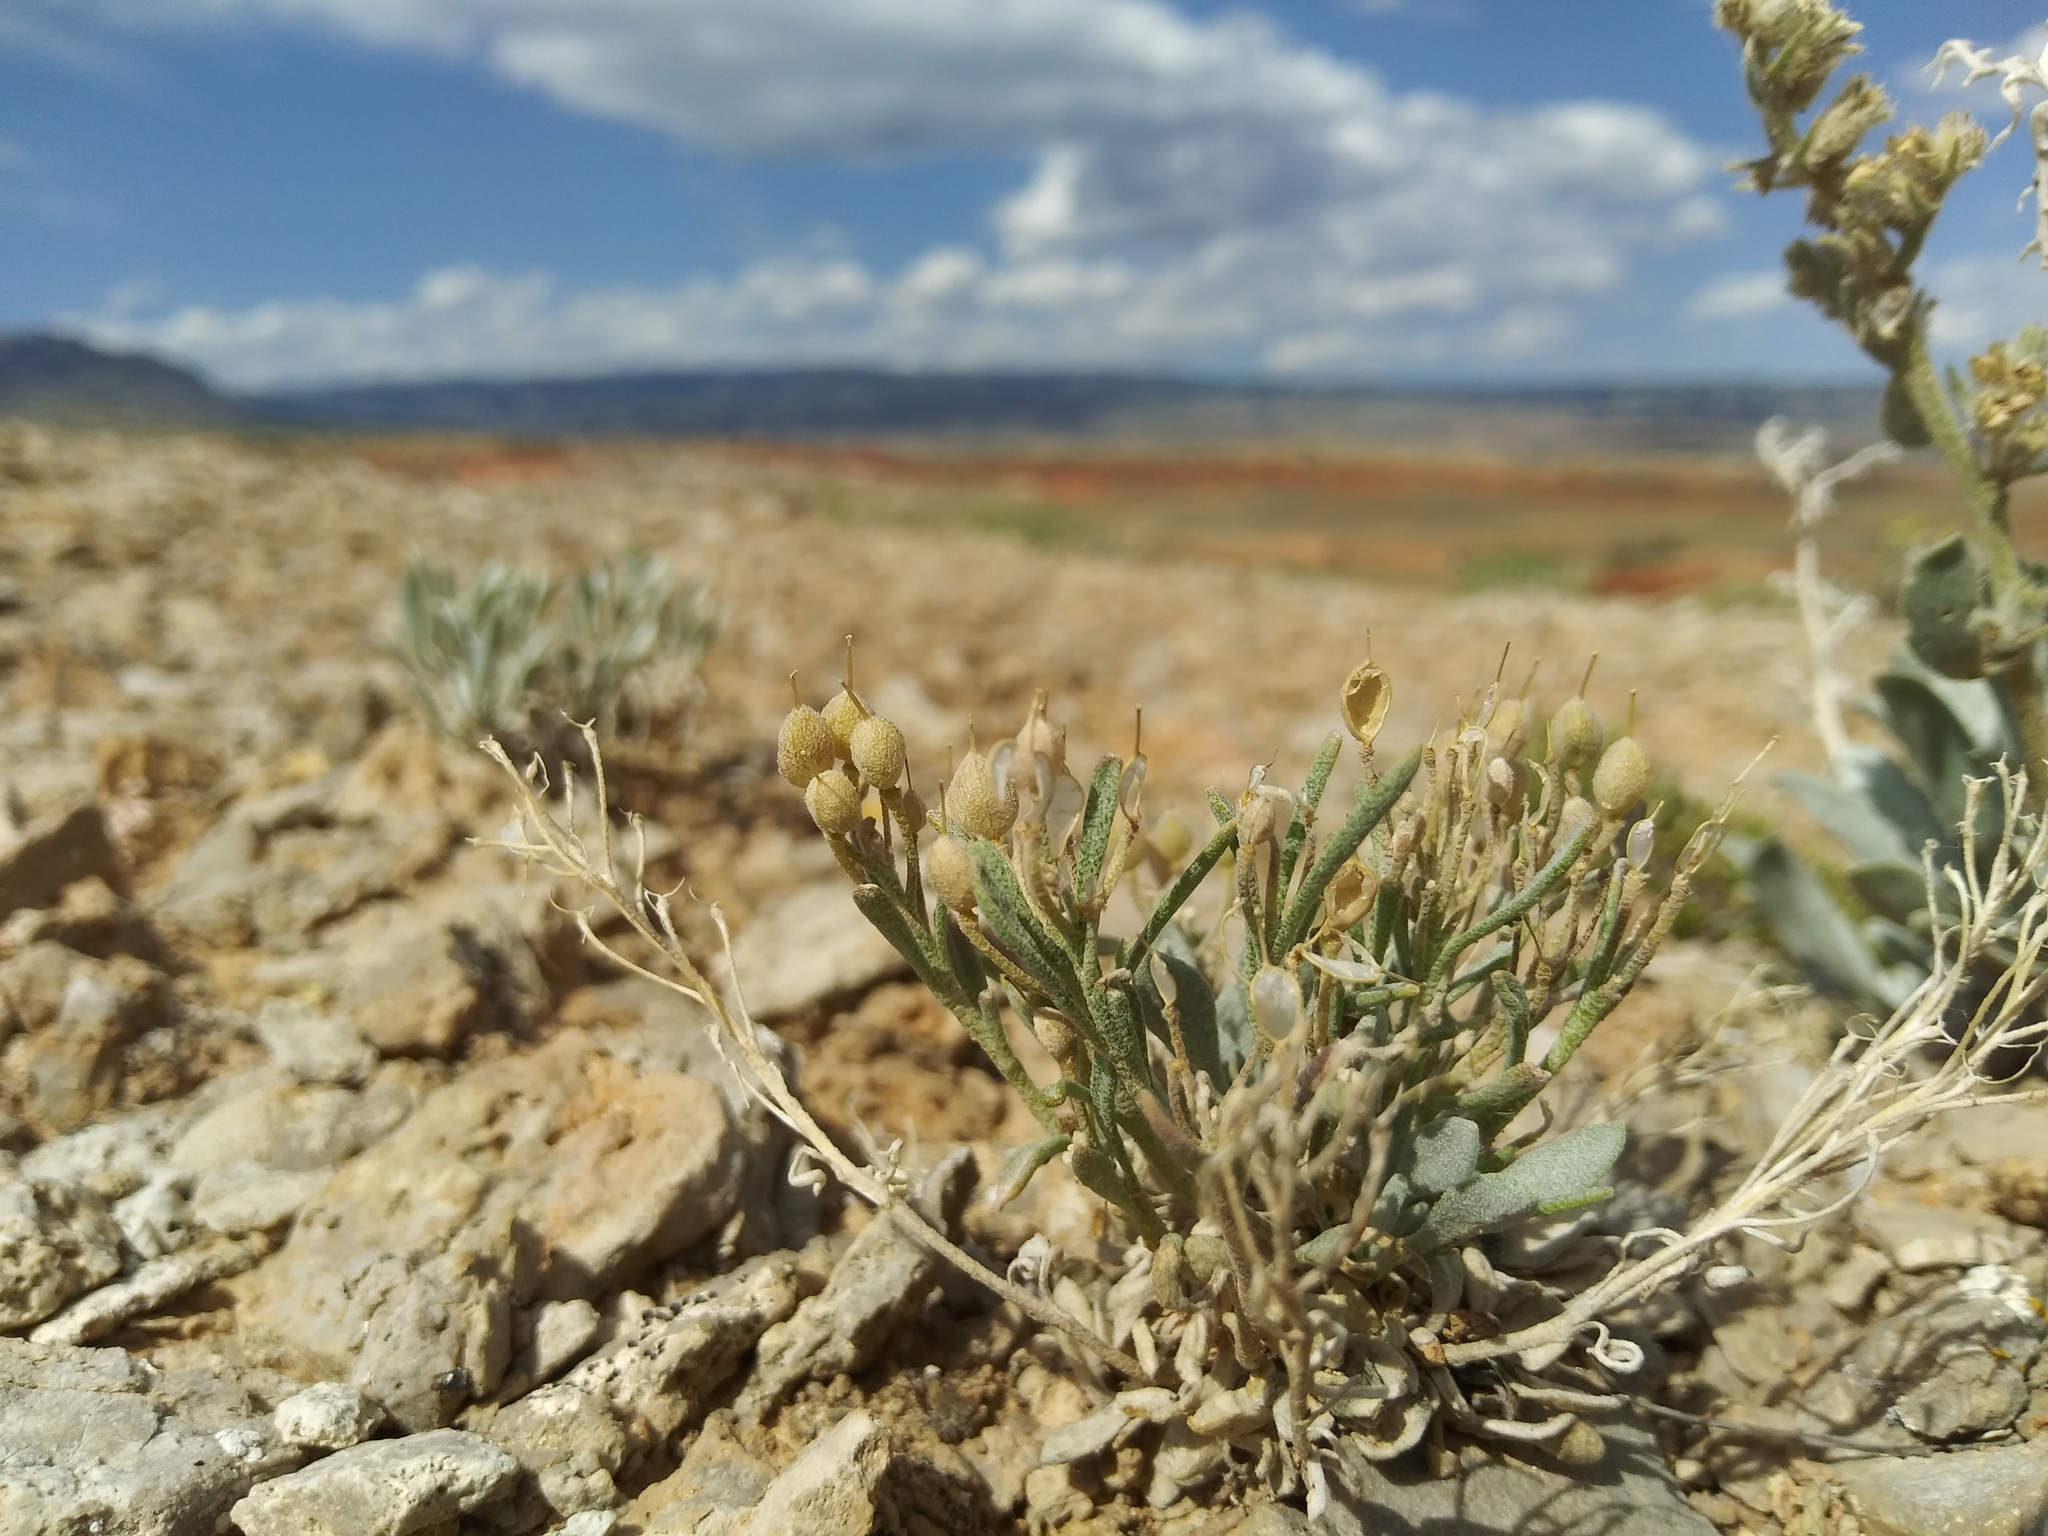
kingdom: Plantae
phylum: Tracheophyta
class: Magnoliopsida
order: Brassicales
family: Brassicaceae
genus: Physaria
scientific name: Physaria pachyphylla
